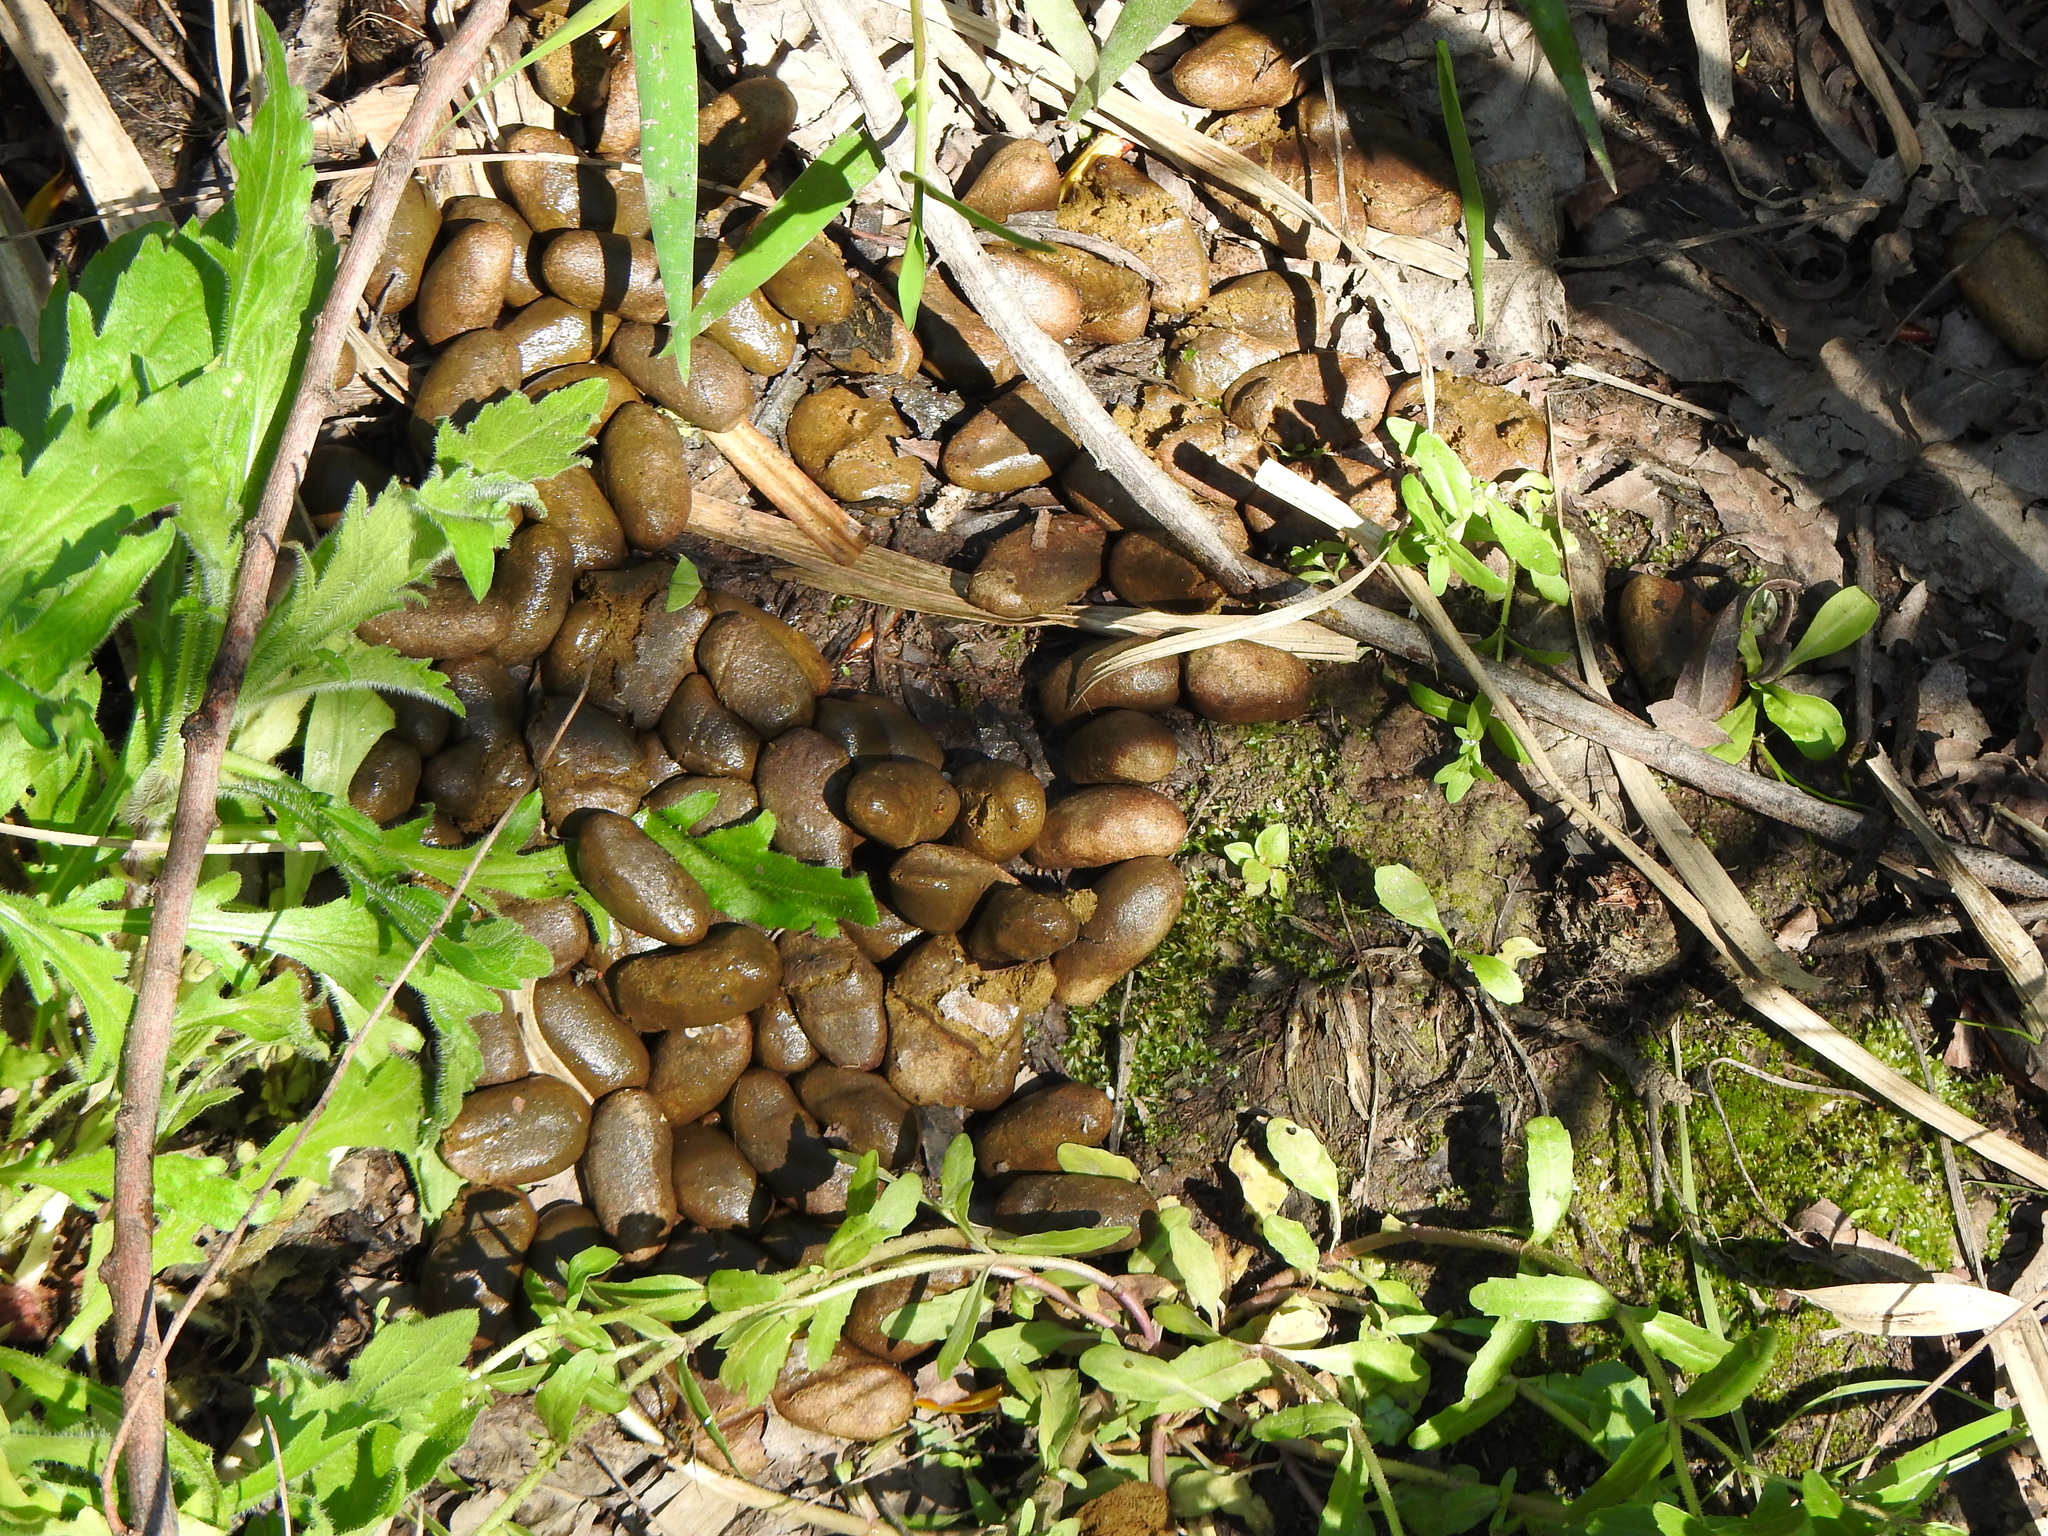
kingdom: Animalia
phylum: Chordata
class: Mammalia
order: Rodentia
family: Caviidae
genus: Hydrochoerus
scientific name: Hydrochoerus hydrochaeris
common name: Capybara
